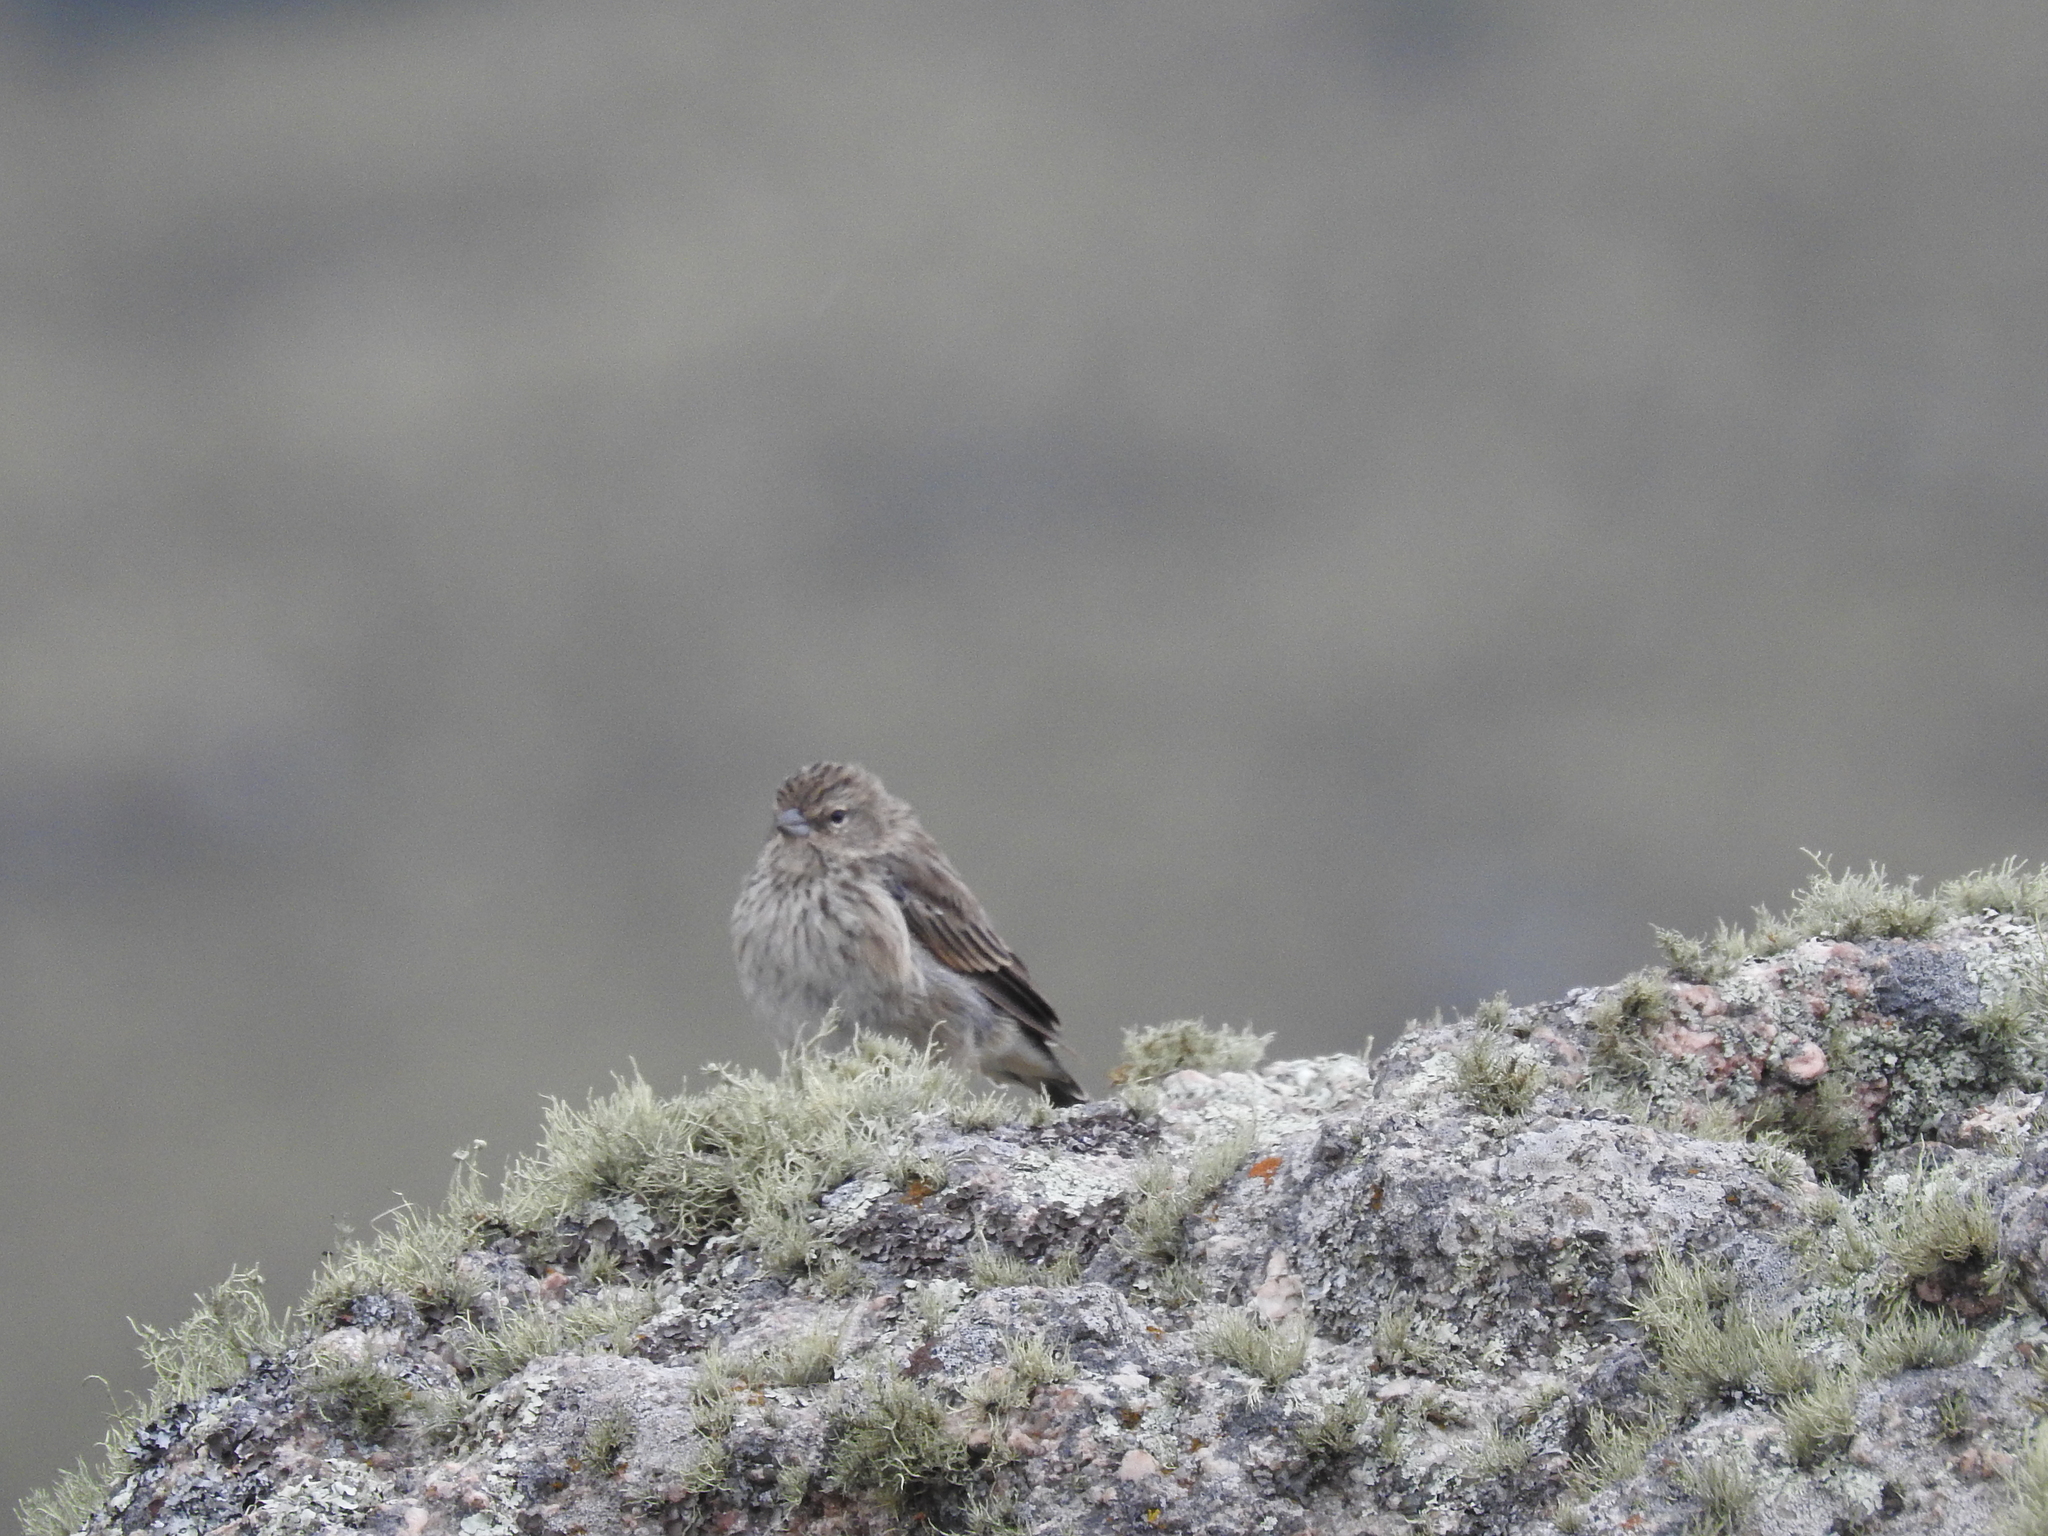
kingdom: Animalia
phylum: Chordata
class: Aves
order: Passeriformes
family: Thraupidae
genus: Geospizopsis
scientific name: Geospizopsis plebejus
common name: Ash-breasted sierra-finch
